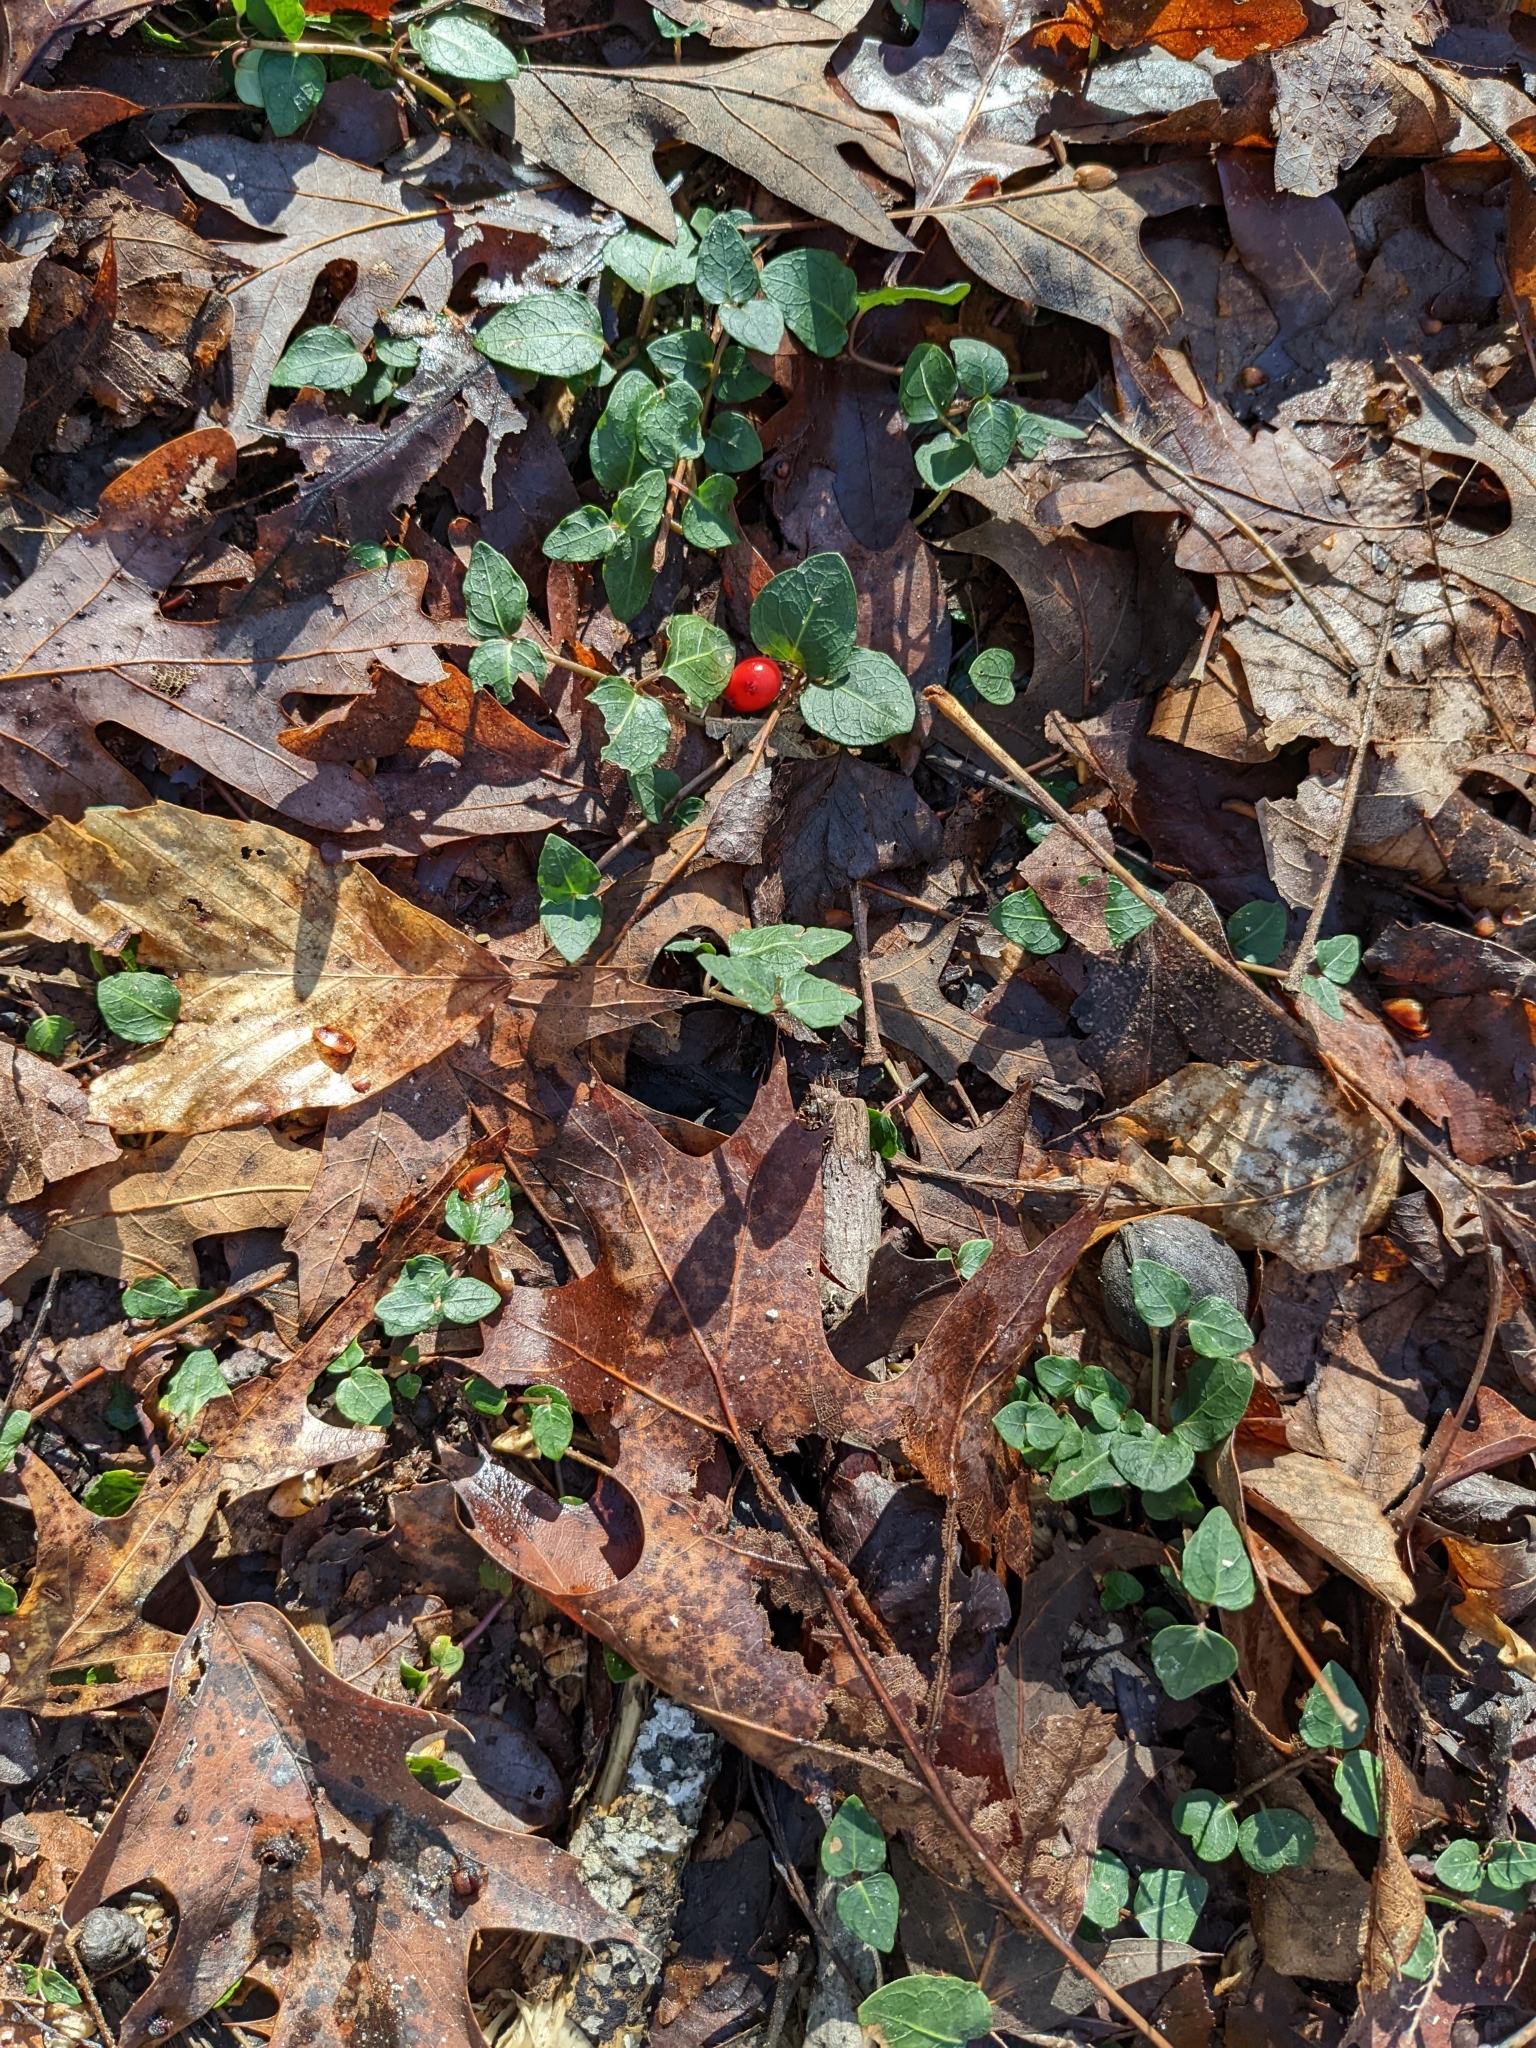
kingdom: Plantae
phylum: Tracheophyta
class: Magnoliopsida
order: Gentianales
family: Rubiaceae
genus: Mitchella
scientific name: Mitchella repens
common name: Partridge-berry
